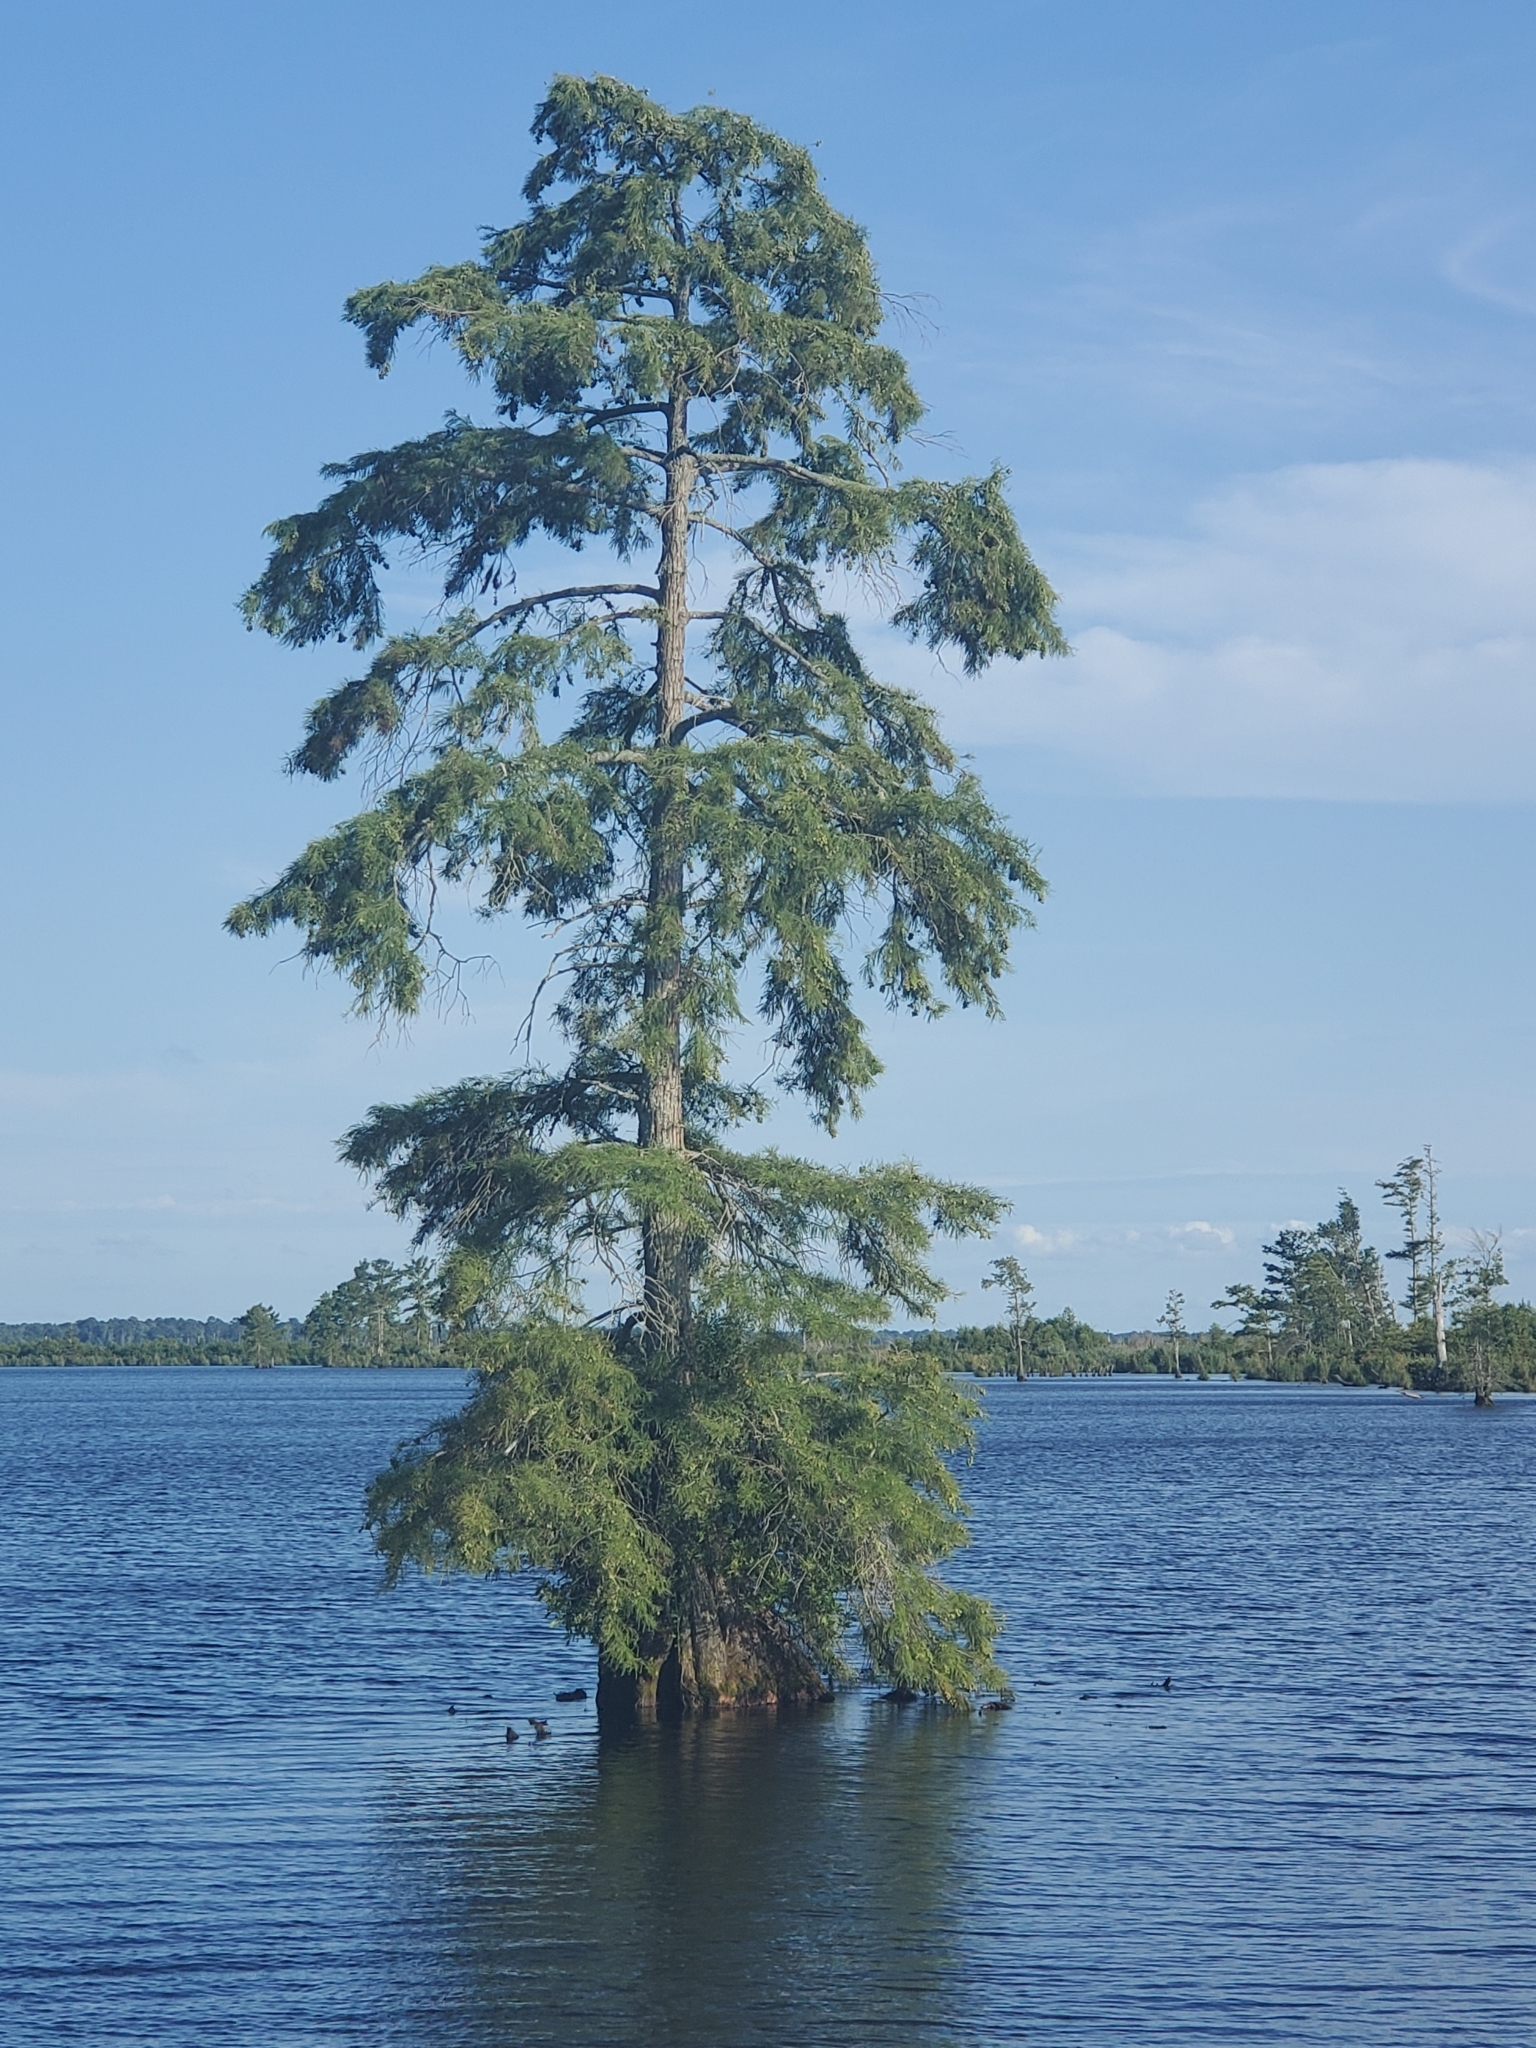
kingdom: Plantae
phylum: Tracheophyta
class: Pinopsida
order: Pinales
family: Cupressaceae
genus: Taxodium
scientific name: Taxodium distichum
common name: Bald cypress
